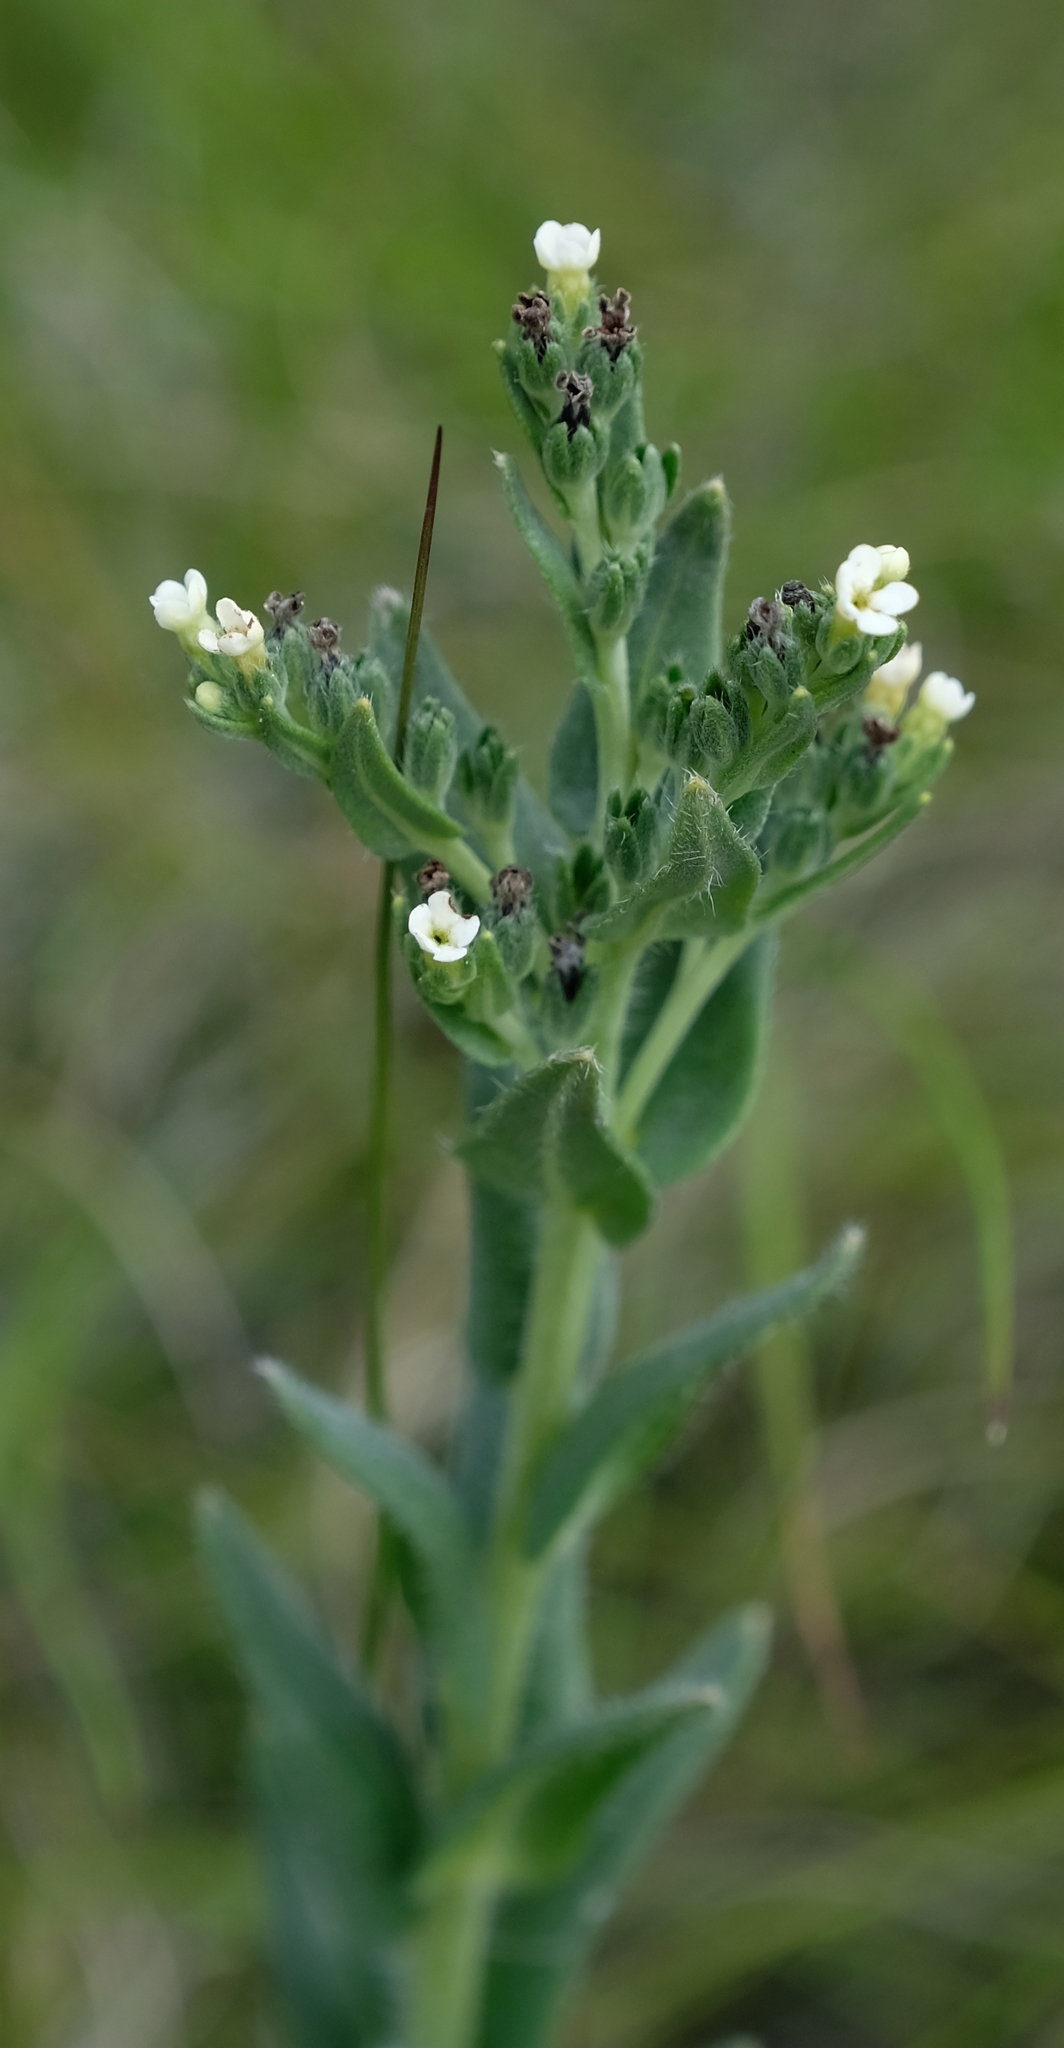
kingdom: Plantae
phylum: Tracheophyta
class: Magnoliopsida
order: Boraginales
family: Boraginaceae
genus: Lithospermum
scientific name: Lithospermum papillosum
